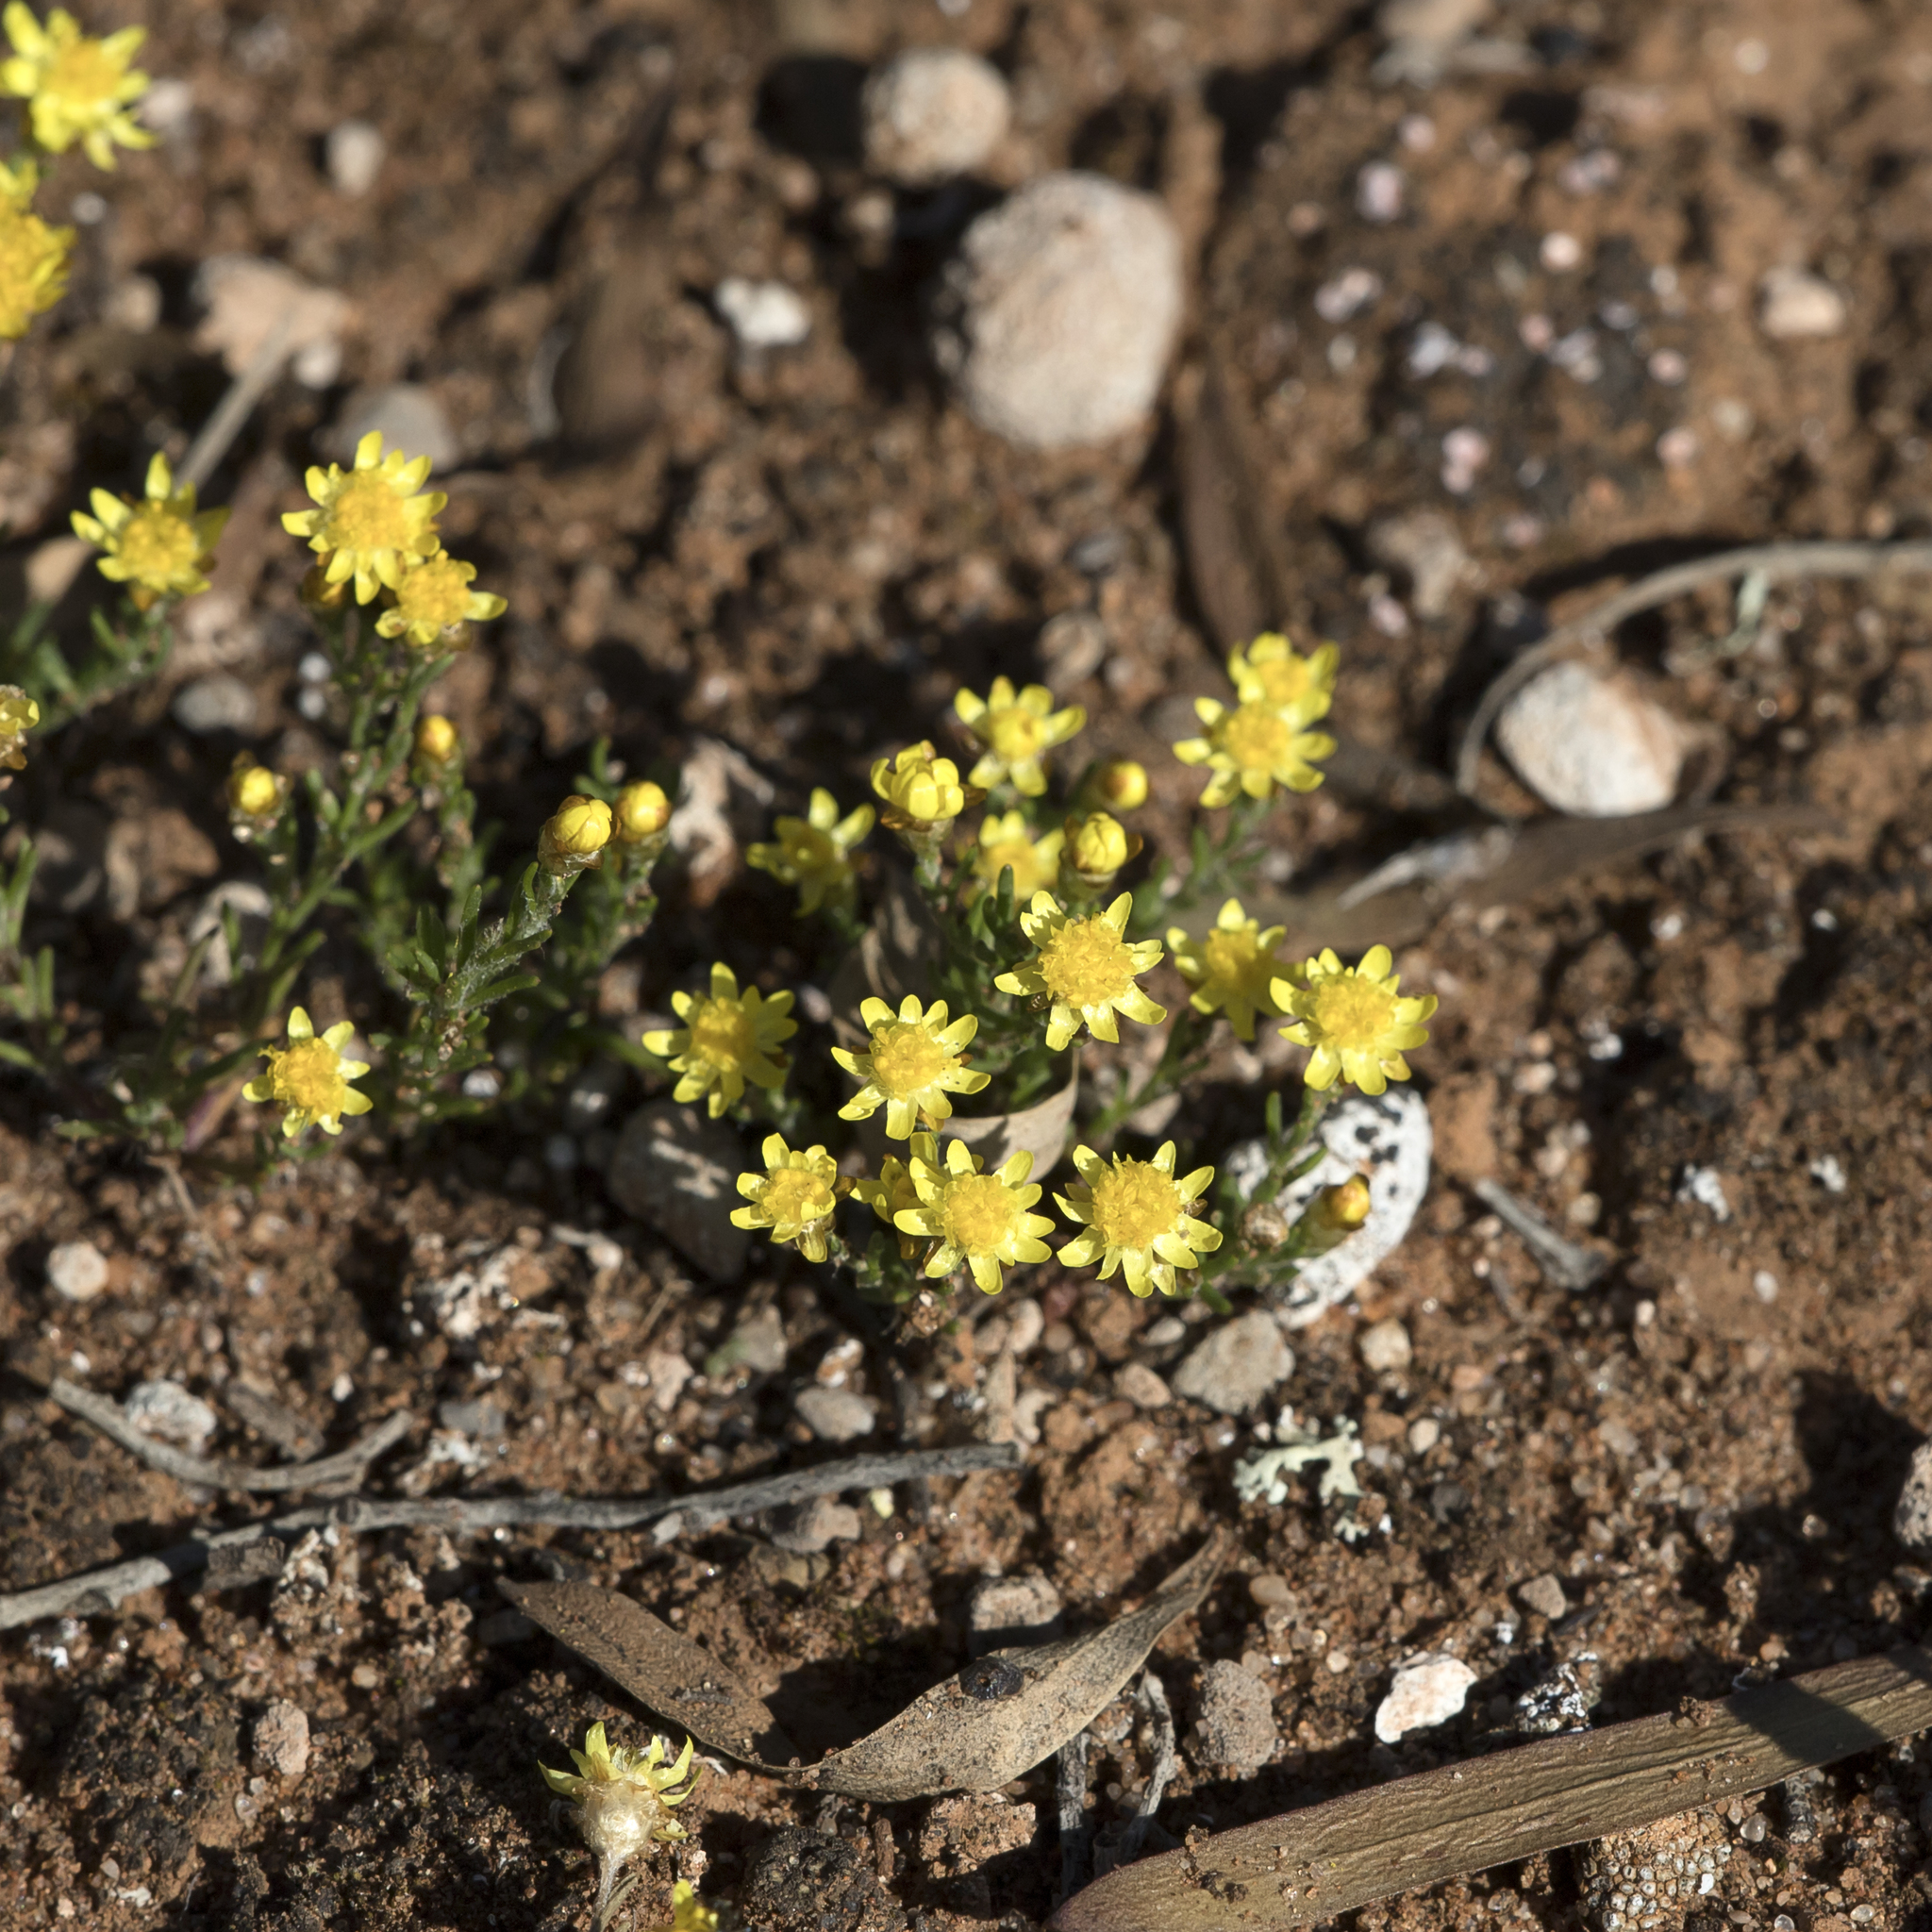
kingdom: Plantae
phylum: Tracheophyta
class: Magnoliopsida
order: Asterales
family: Asteraceae
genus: Hyalosperma
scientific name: Hyalosperma semisterile
